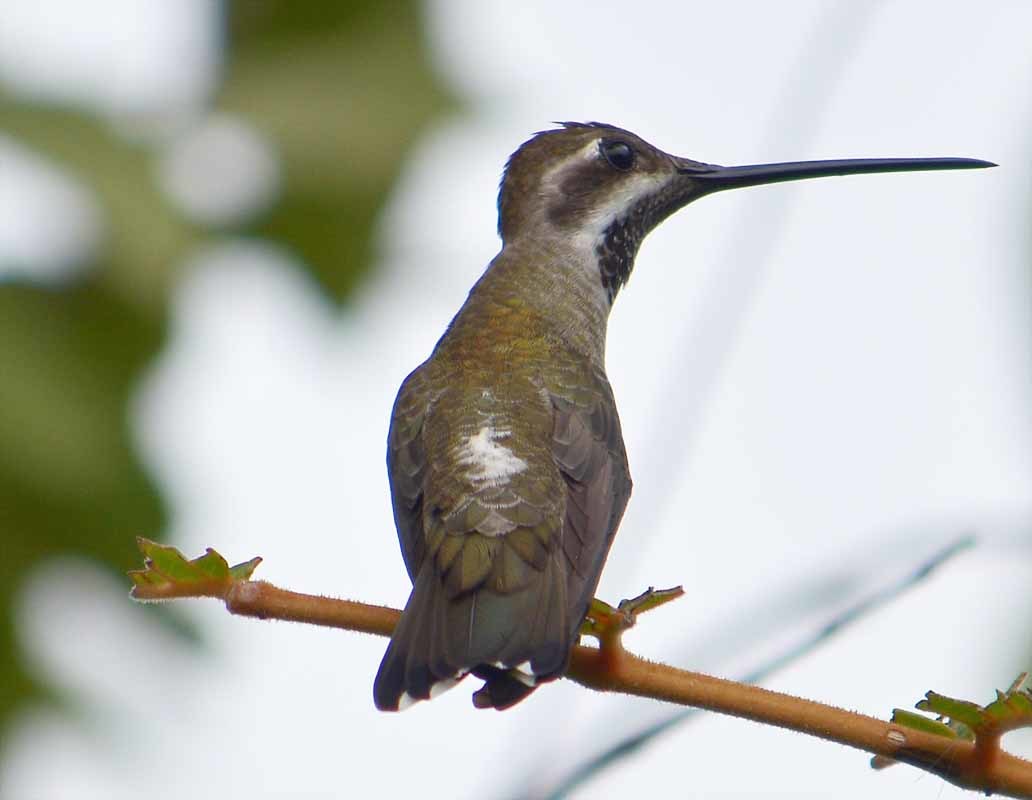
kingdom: Animalia
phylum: Chordata
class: Aves
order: Apodiformes
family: Trochilidae
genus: Heliomaster
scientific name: Heliomaster constantii
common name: Plain-capped starthroat
